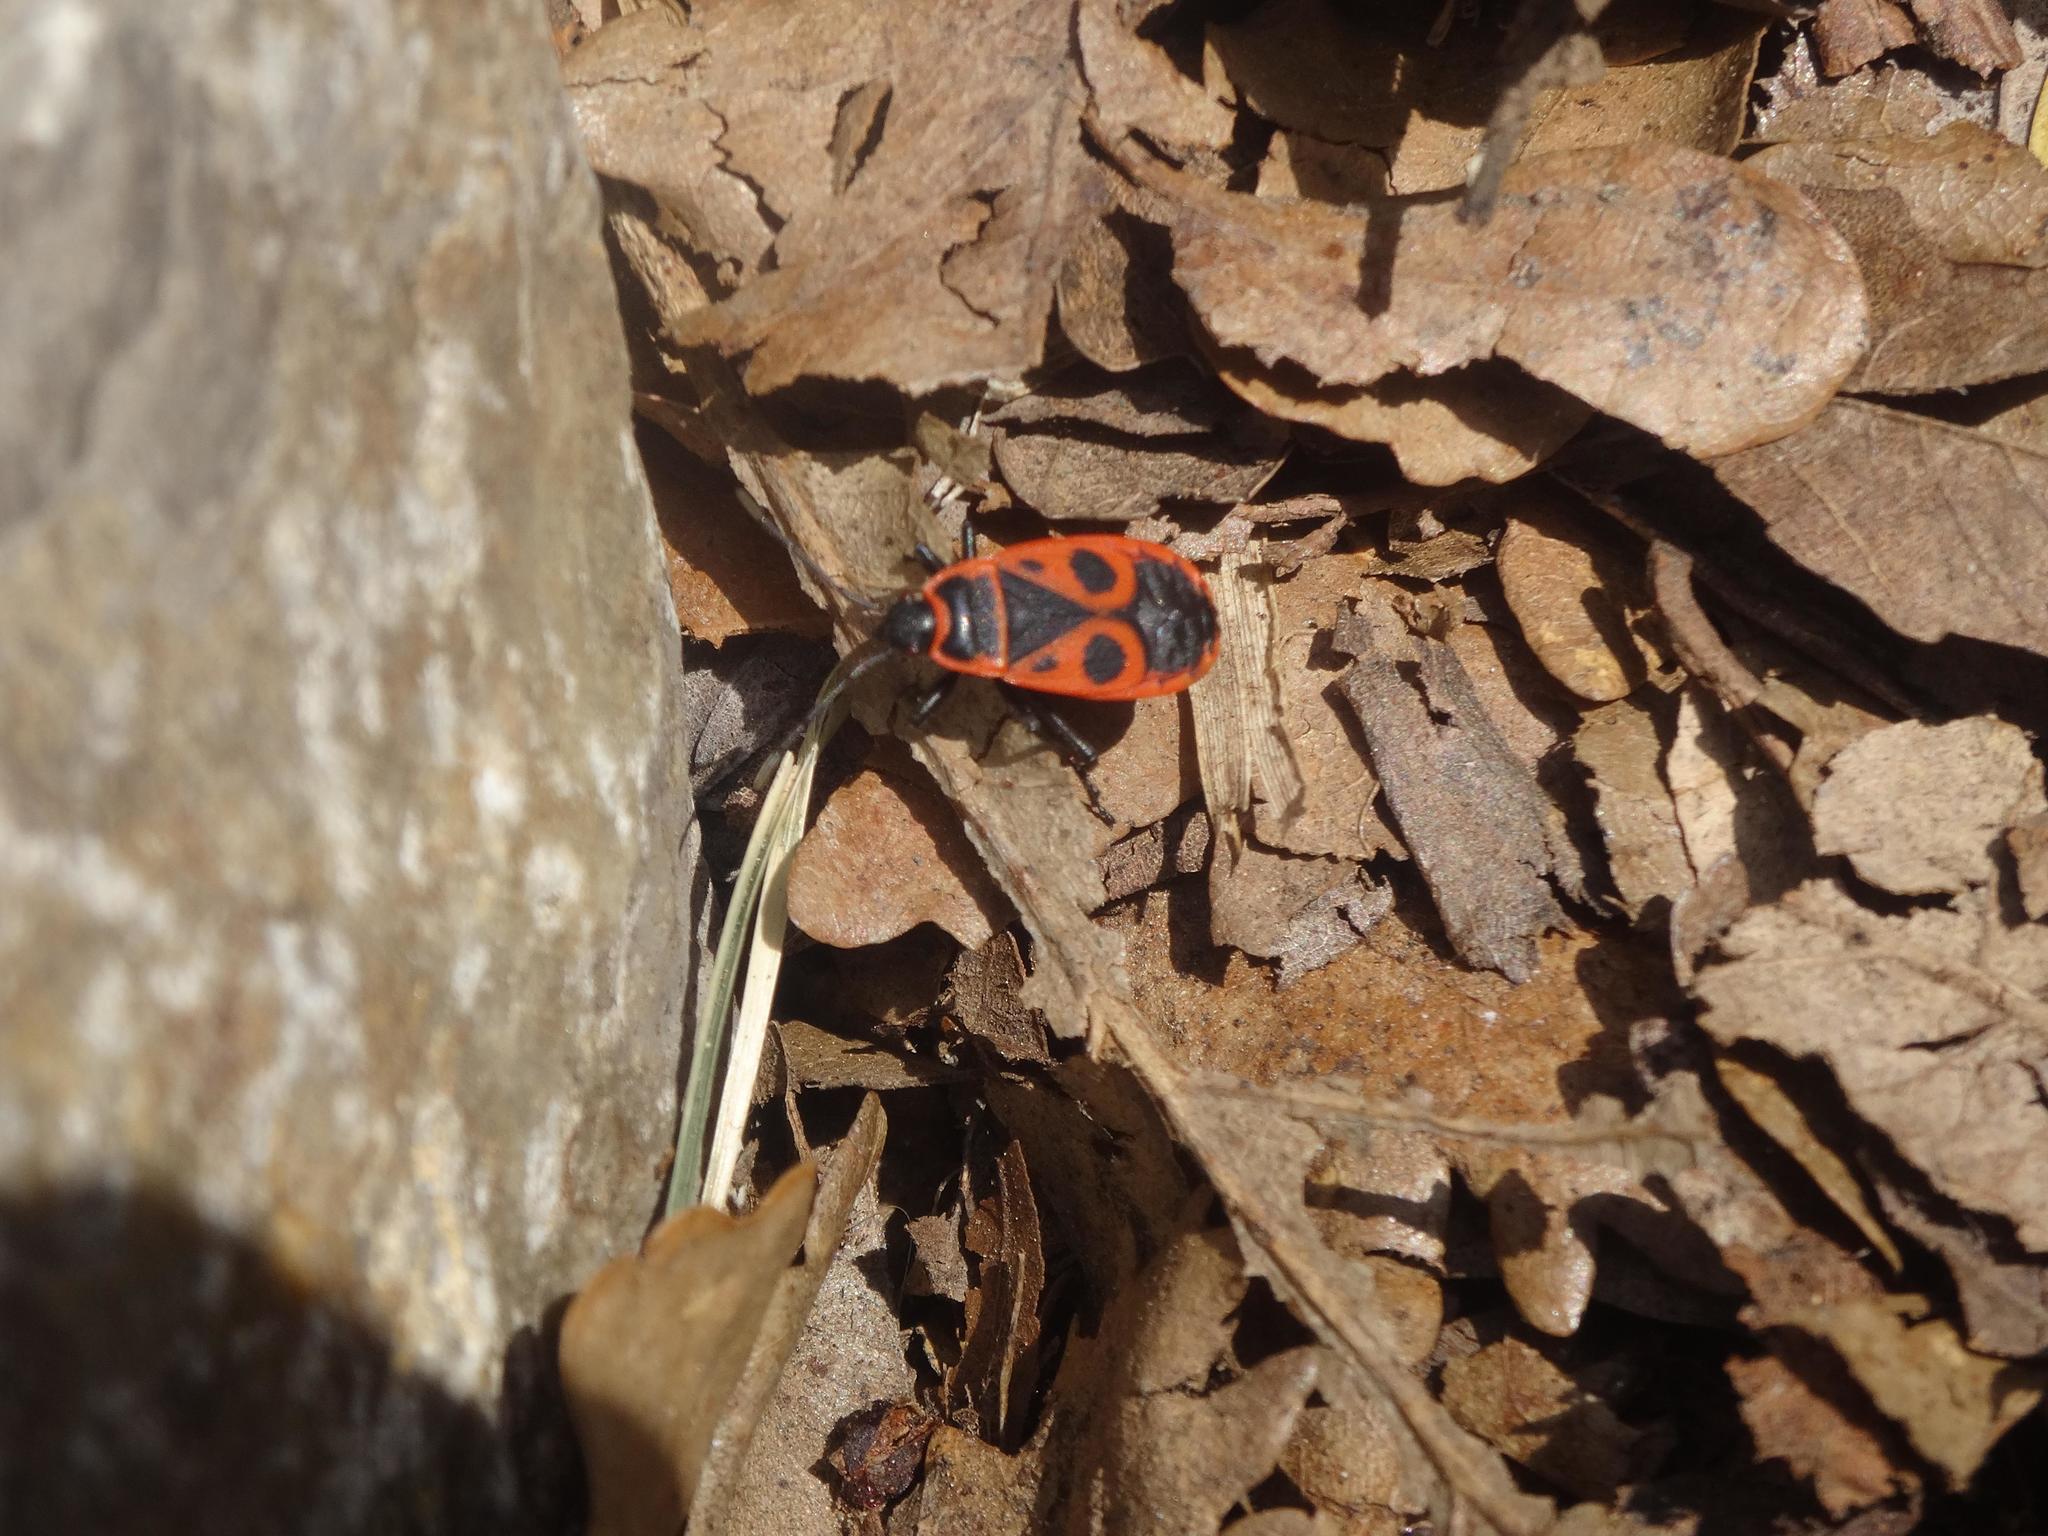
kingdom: Animalia
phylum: Arthropoda
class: Insecta
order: Hemiptera
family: Pyrrhocoridae
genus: Pyrrhocoris
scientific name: Pyrrhocoris apterus
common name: Firebug
